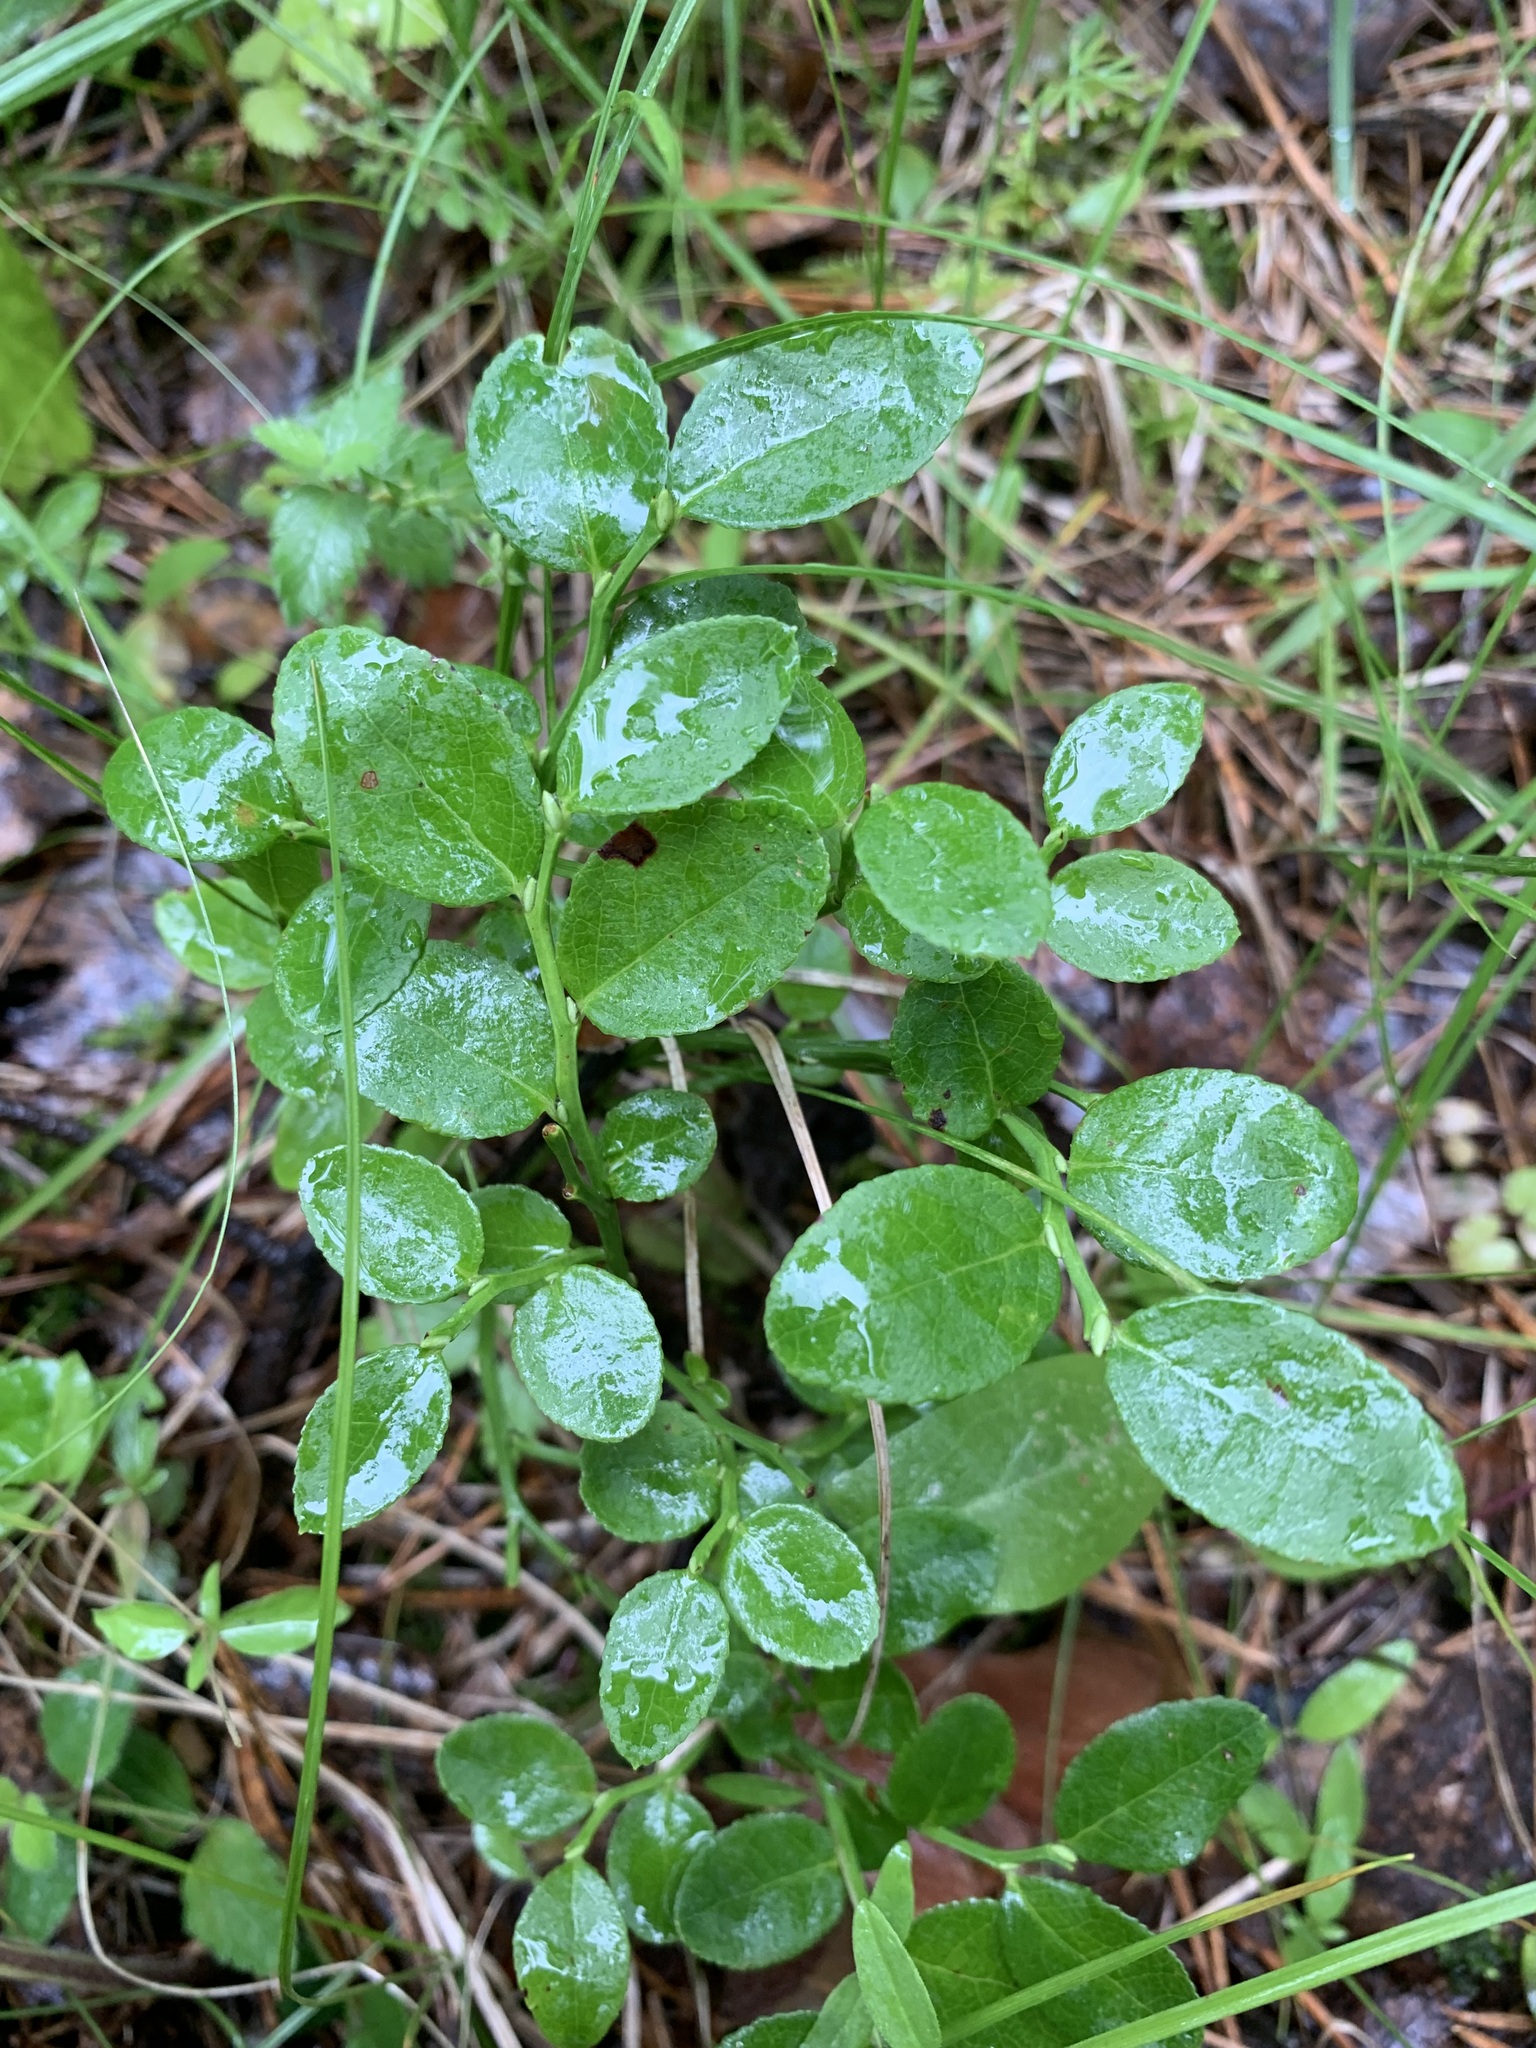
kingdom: Plantae
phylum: Tracheophyta
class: Magnoliopsida
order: Ericales
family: Ericaceae
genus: Vaccinium
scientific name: Vaccinium myrtillus
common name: Bilberry
